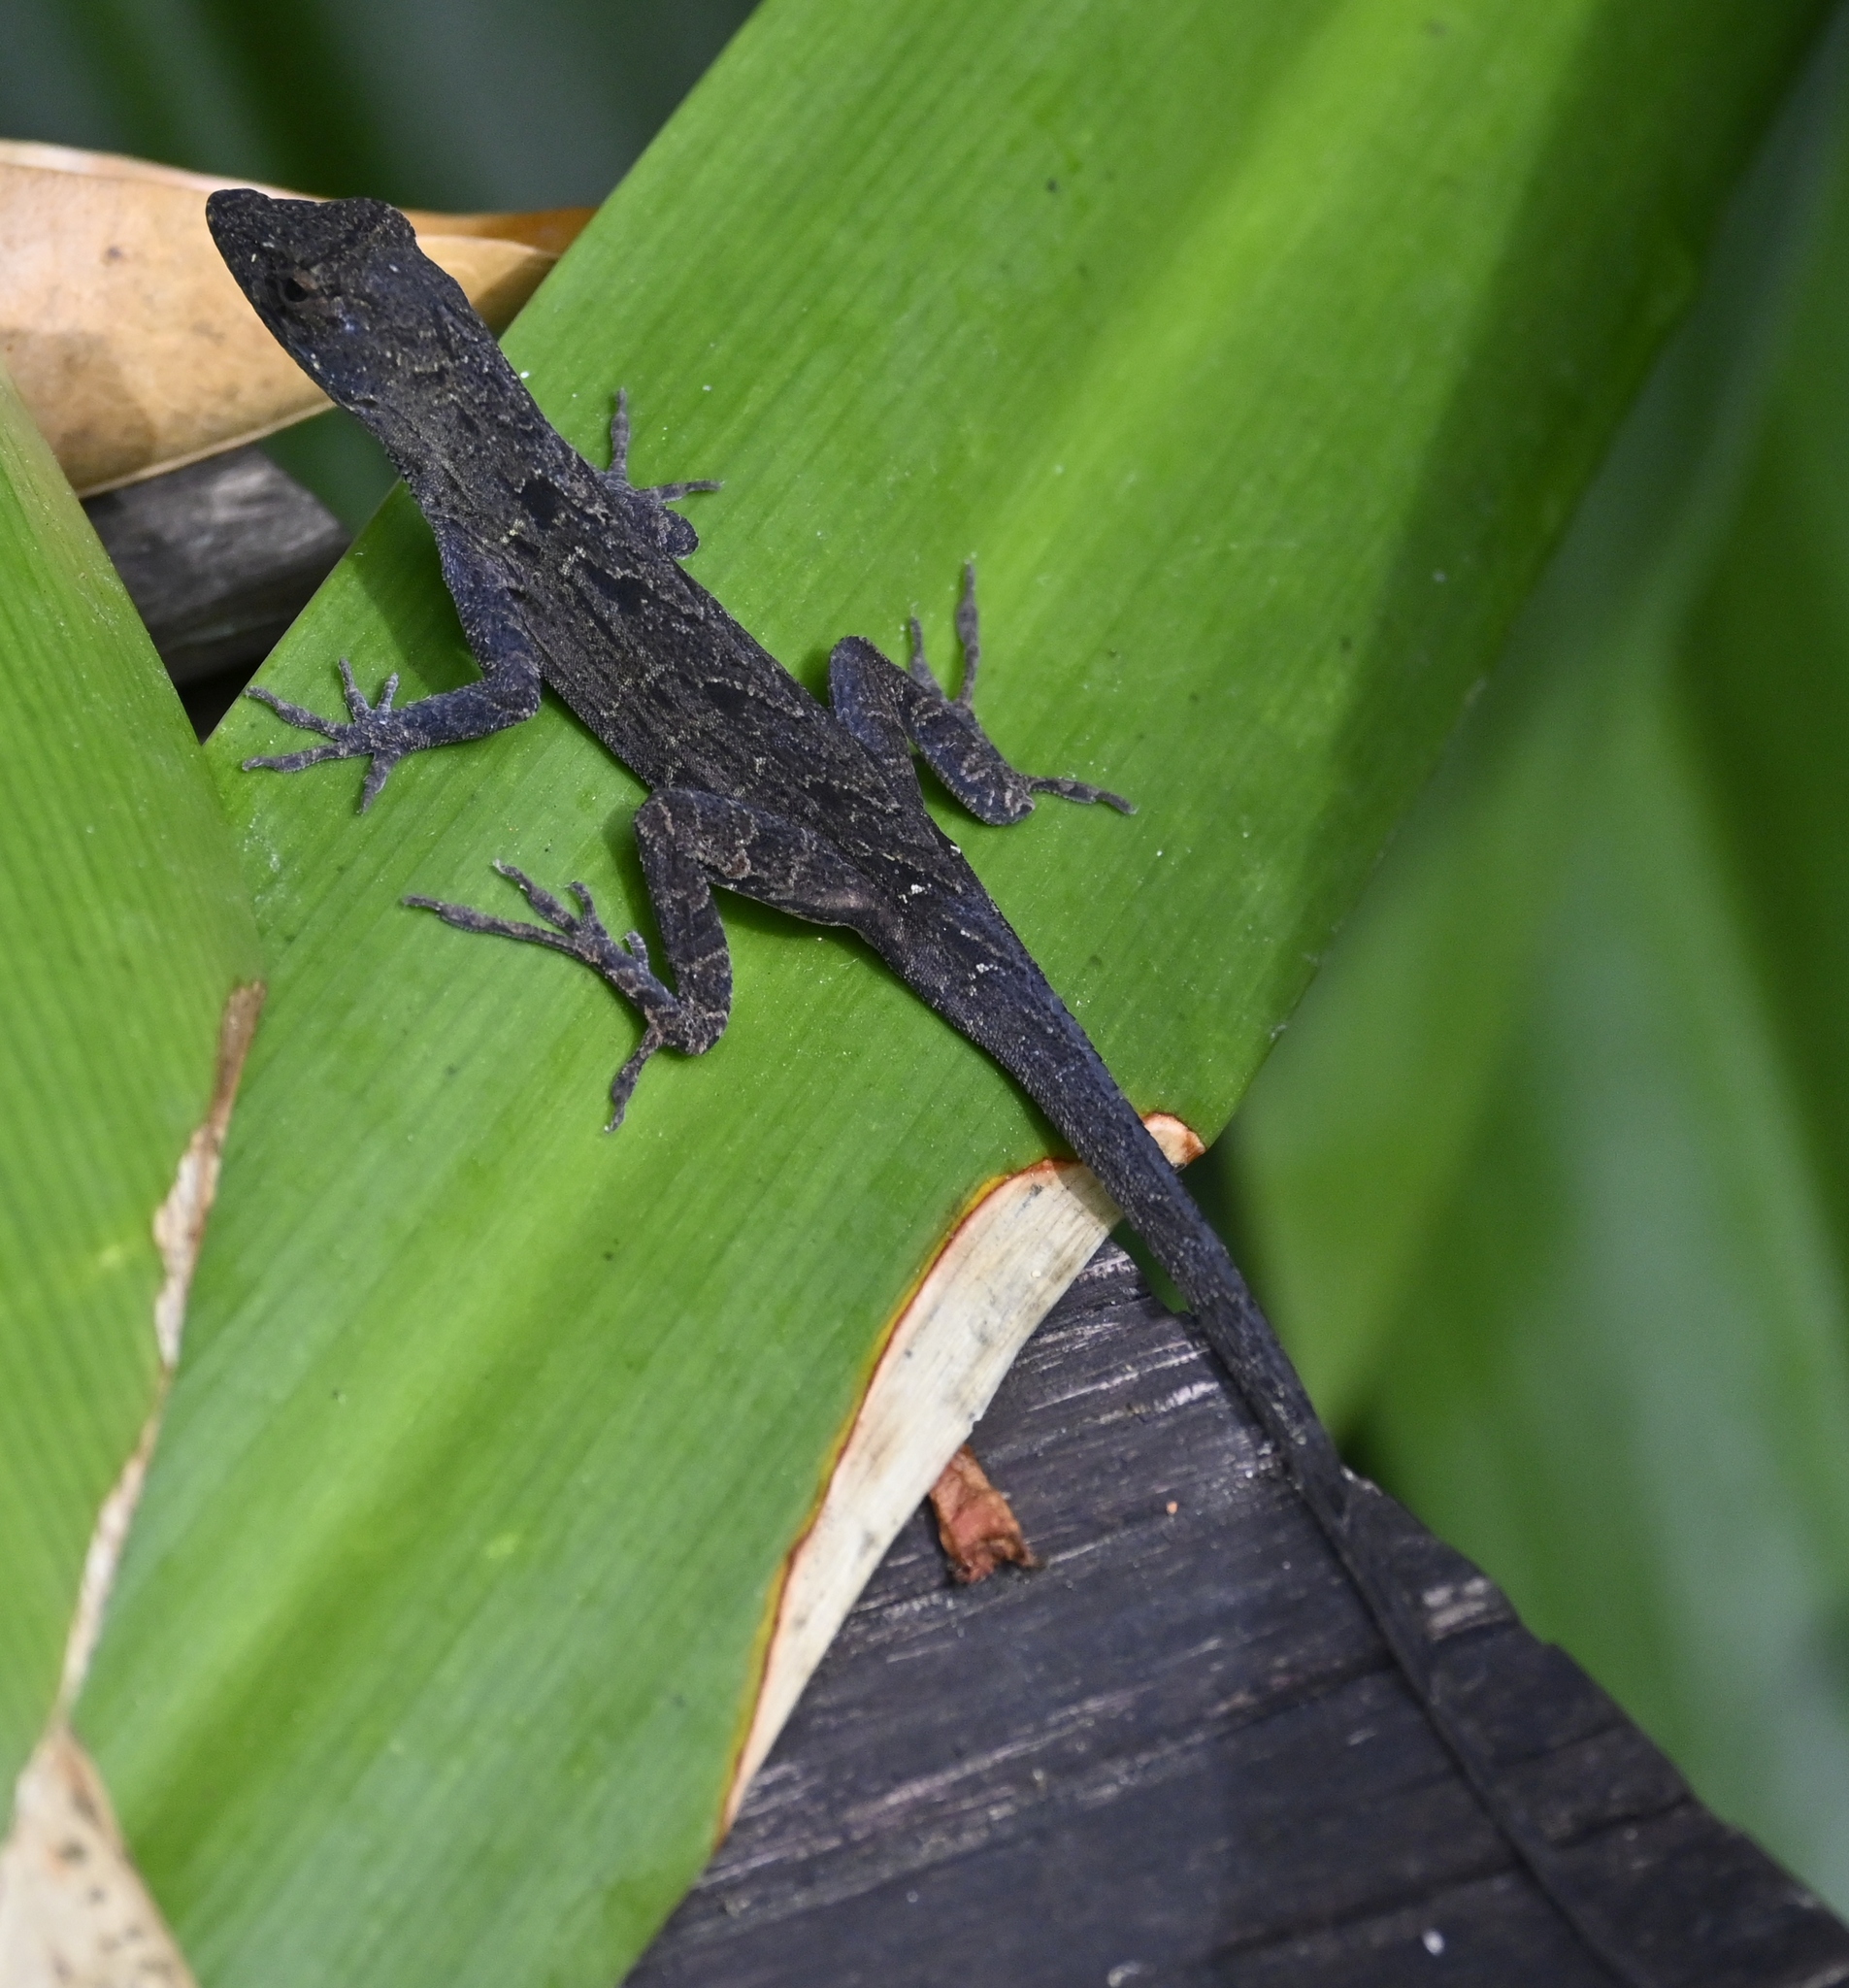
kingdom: Animalia
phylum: Chordata
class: Squamata
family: Dactyloidae
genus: Anolis
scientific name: Anolis sagrei
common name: Brown anole
